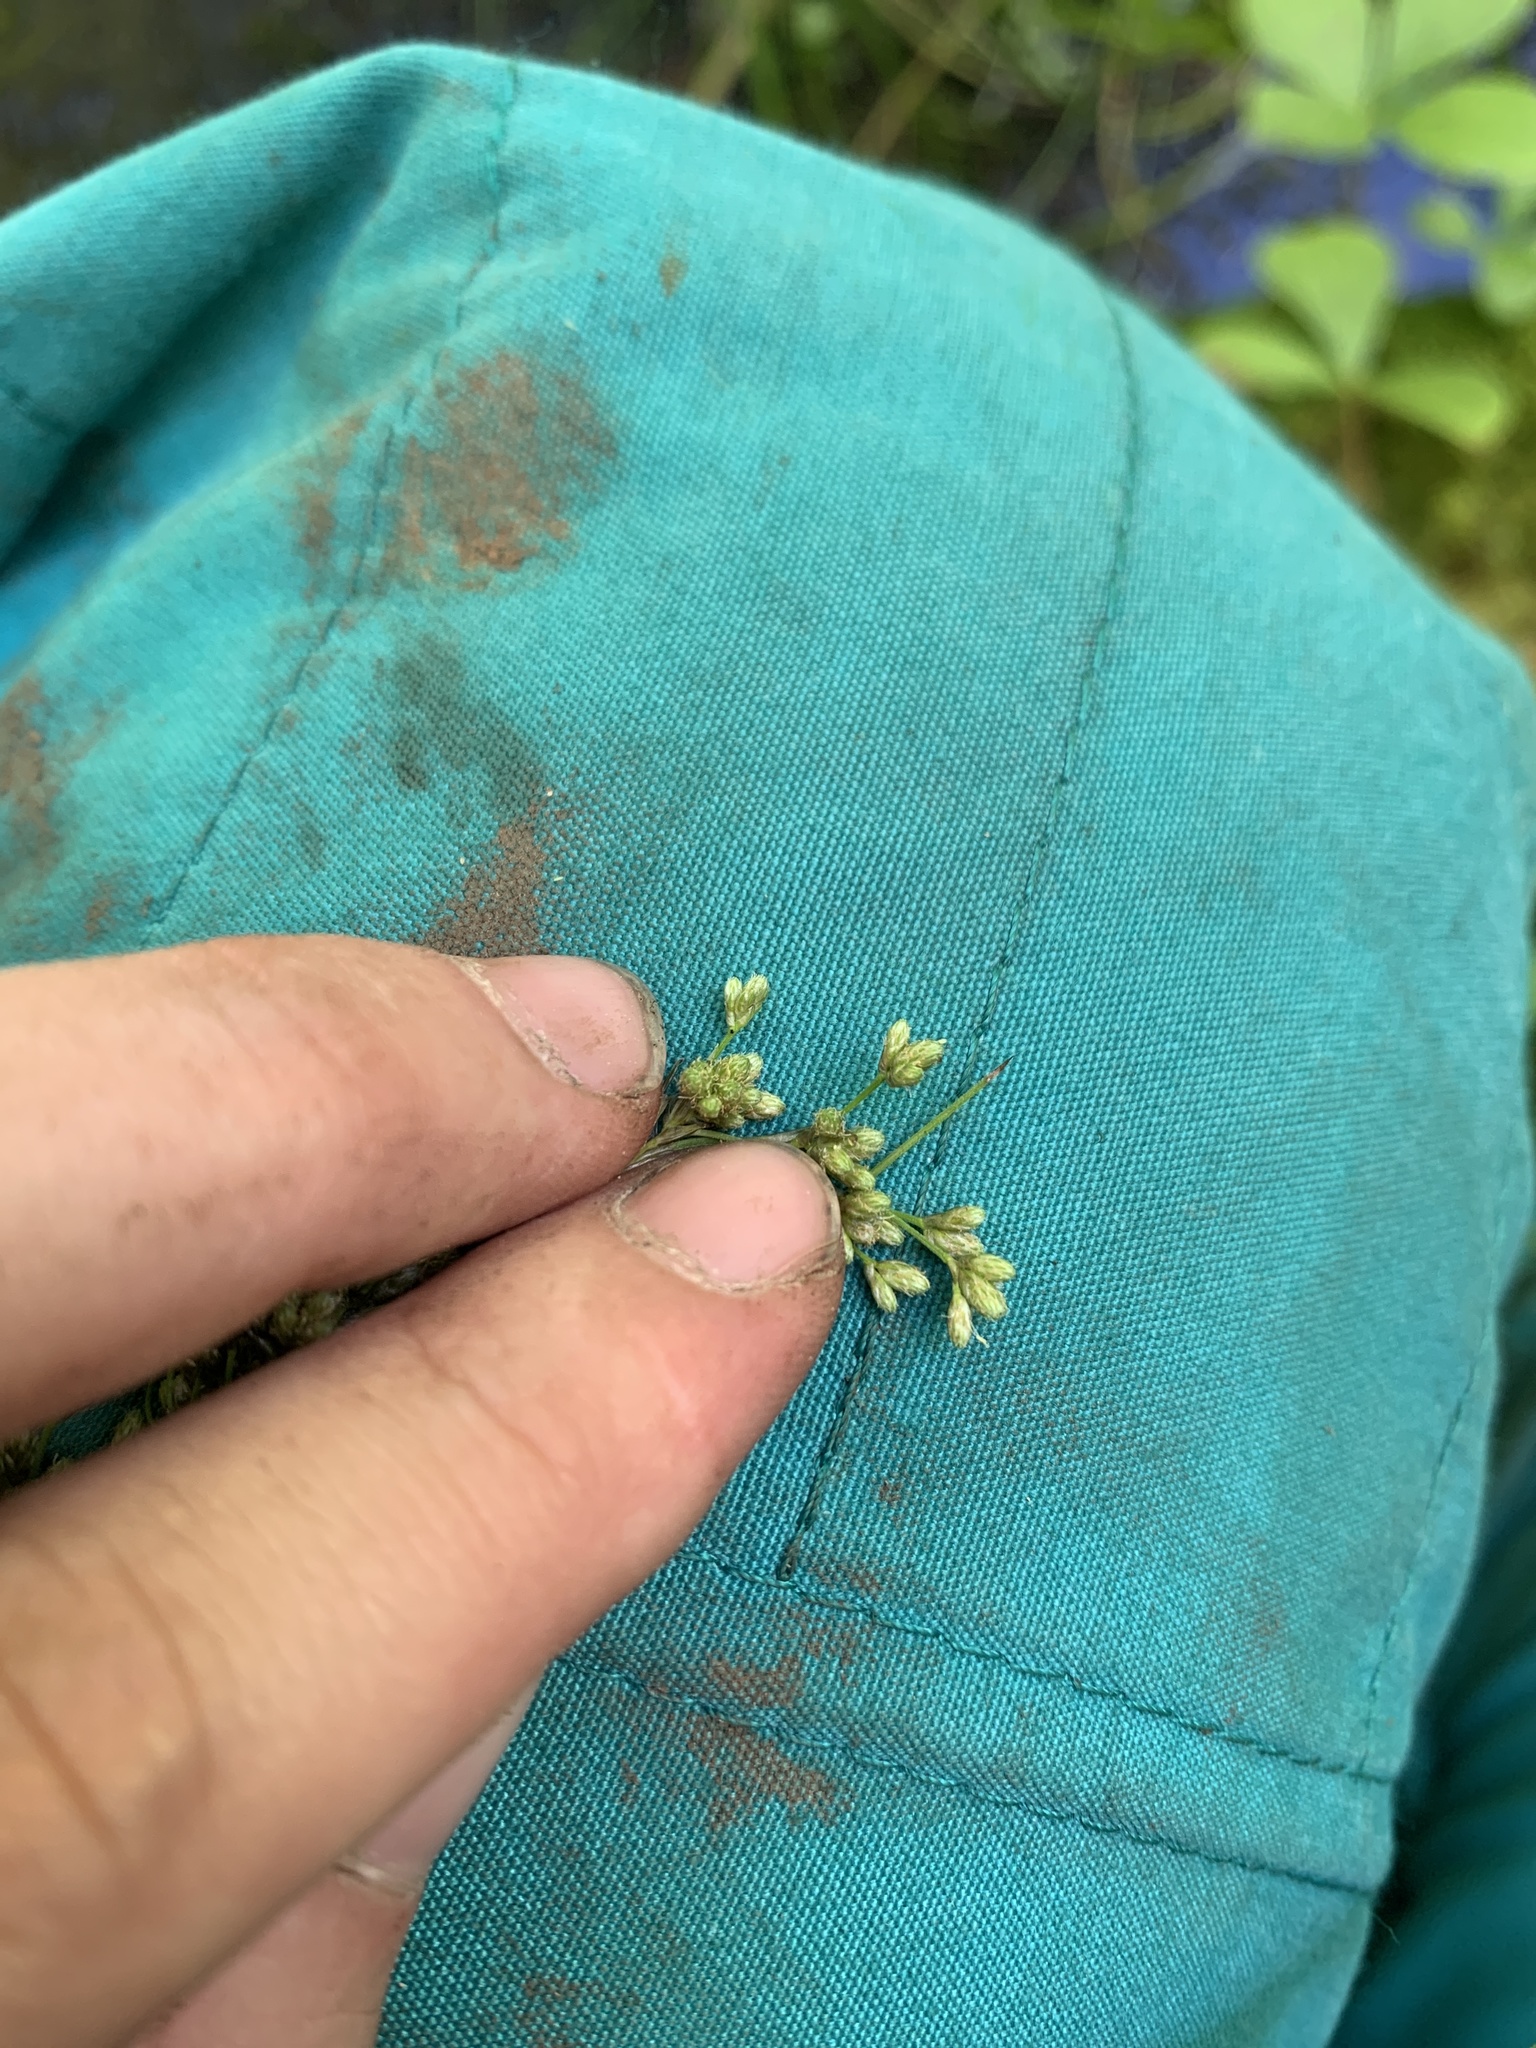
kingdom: Plantae
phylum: Tracheophyta
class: Liliopsida
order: Poales
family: Cyperaceae
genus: Scirpus
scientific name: Scirpus cyperinus
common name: Black-sheathed bulrush
